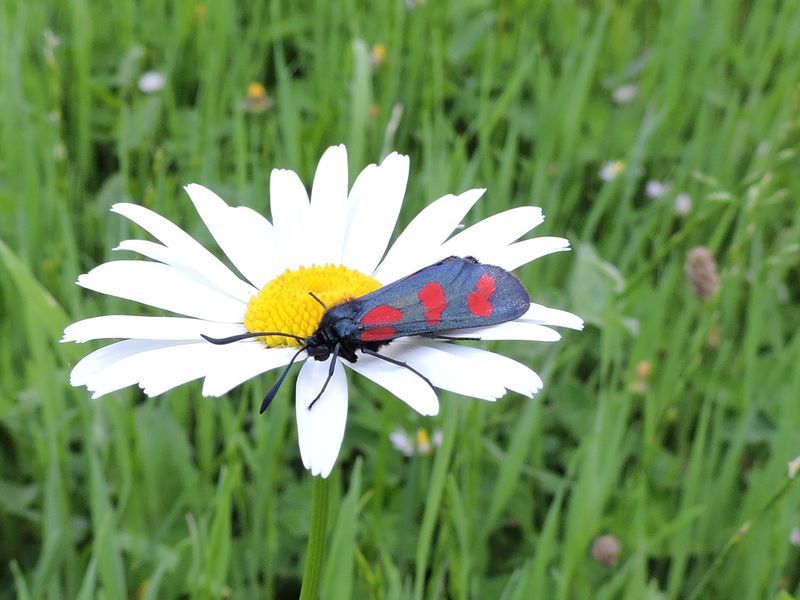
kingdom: Animalia
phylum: Arthropoda
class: Insecta
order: Lepidoptera
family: Zygaenidae
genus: Zygaena
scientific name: Zygaena filipendulae
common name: Six-spot burnet
